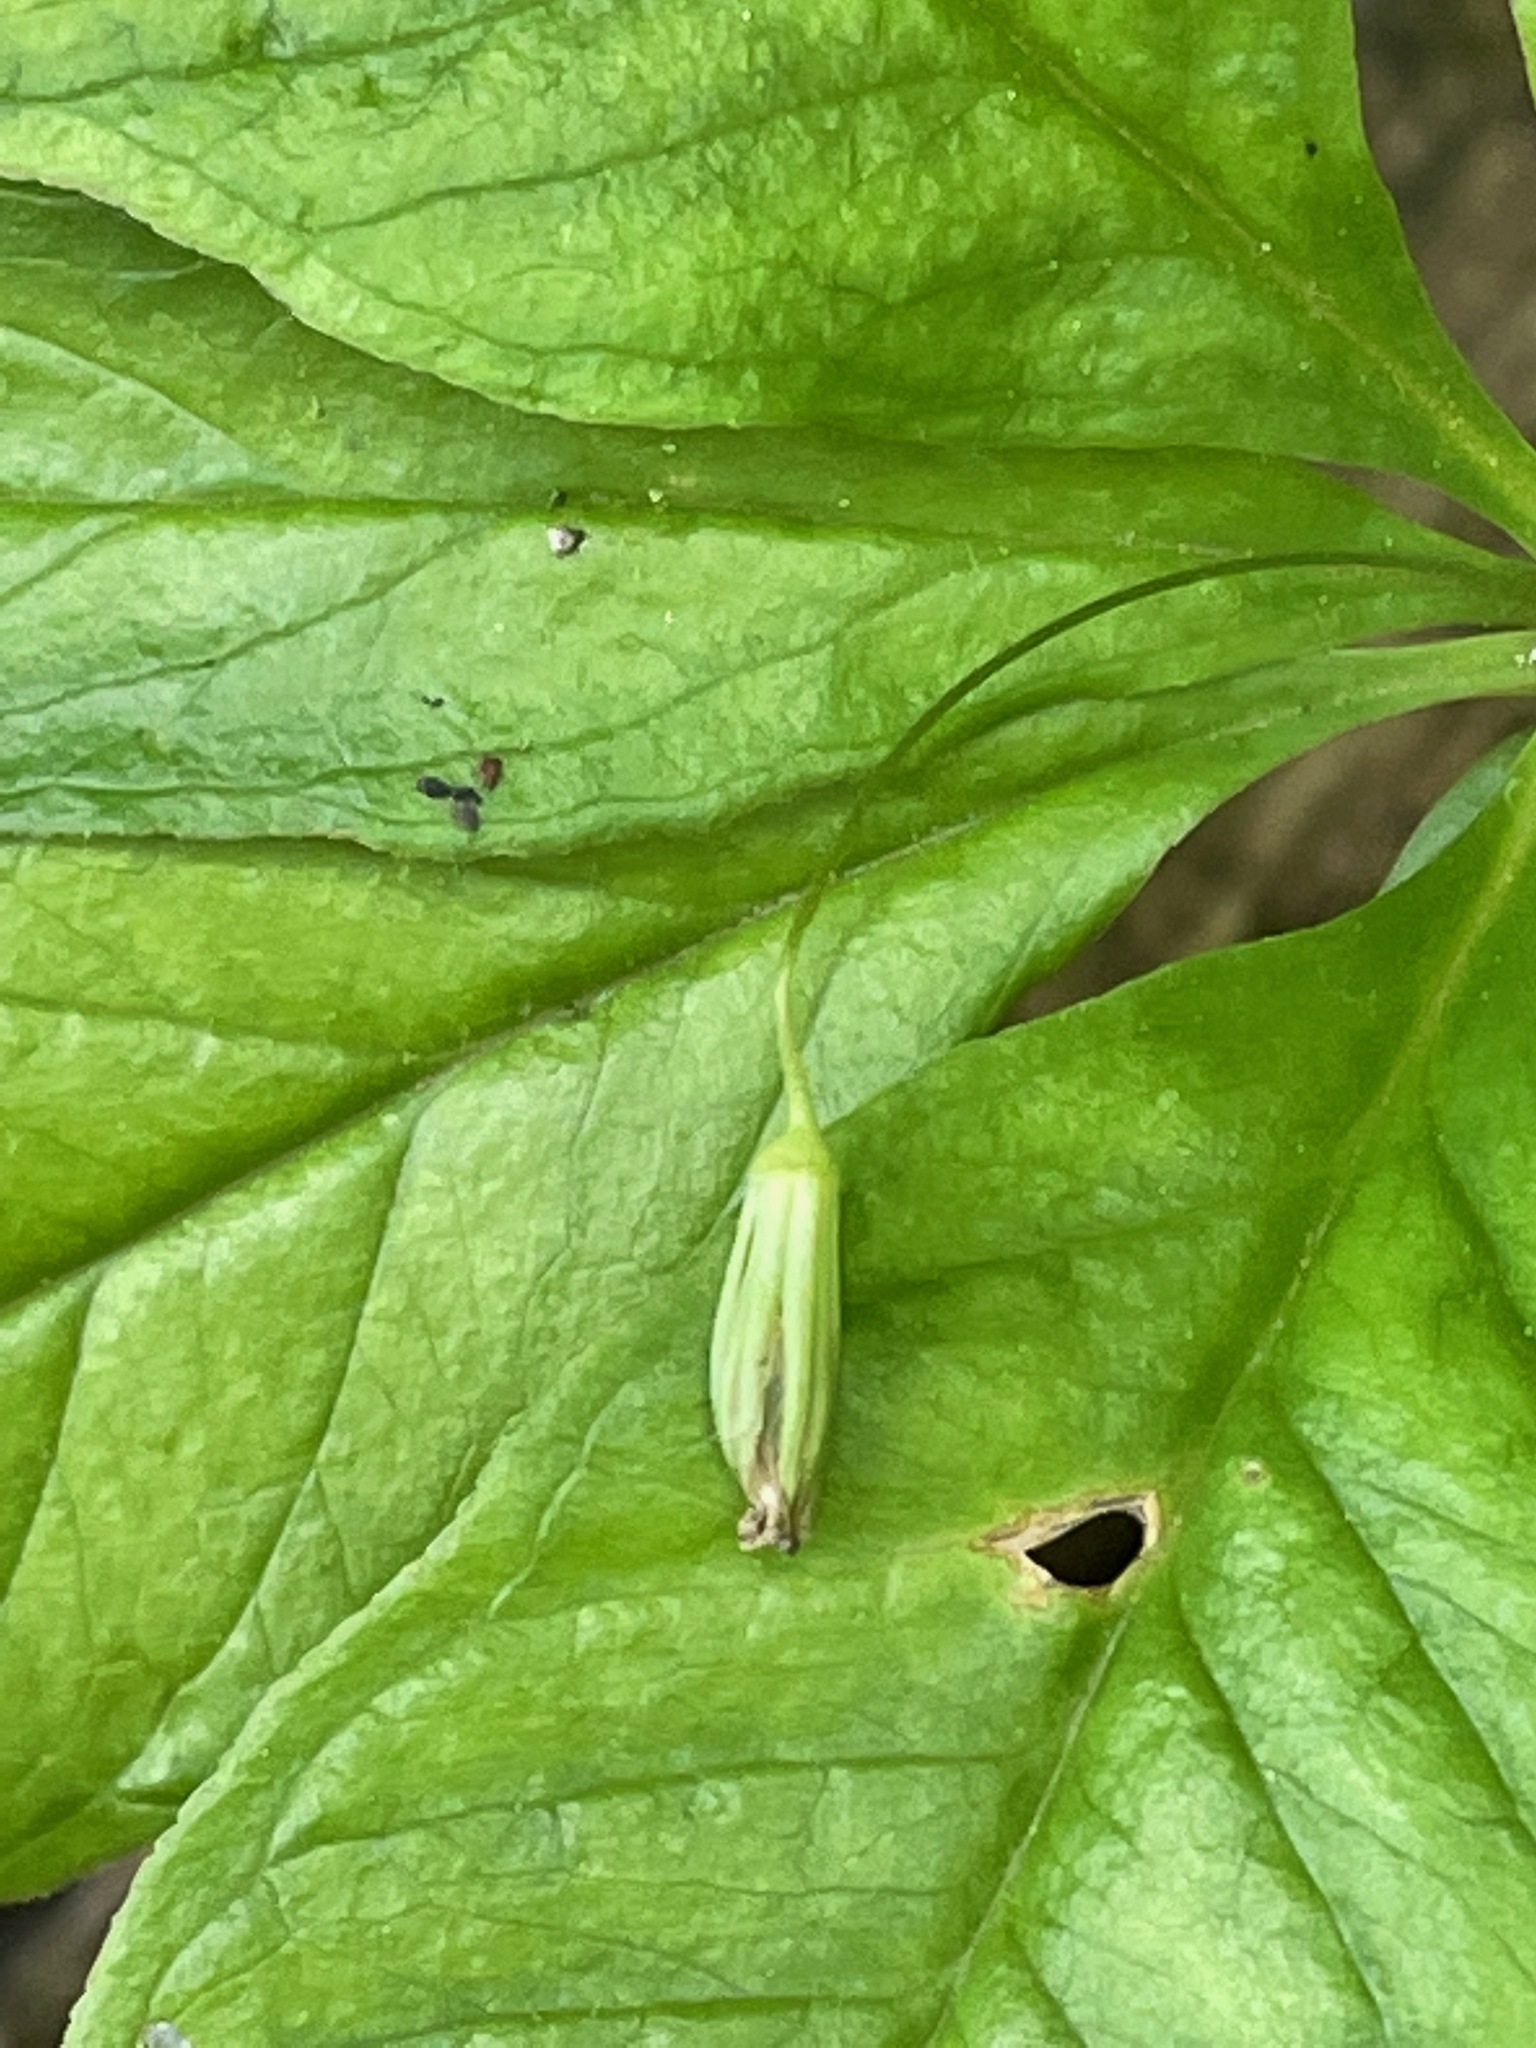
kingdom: Plantae
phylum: Tracheophyta
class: Magnoliopsida
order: Ericales
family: Primulaceae
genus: Lysimachia
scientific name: Lysimachia borealis
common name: American starflower
